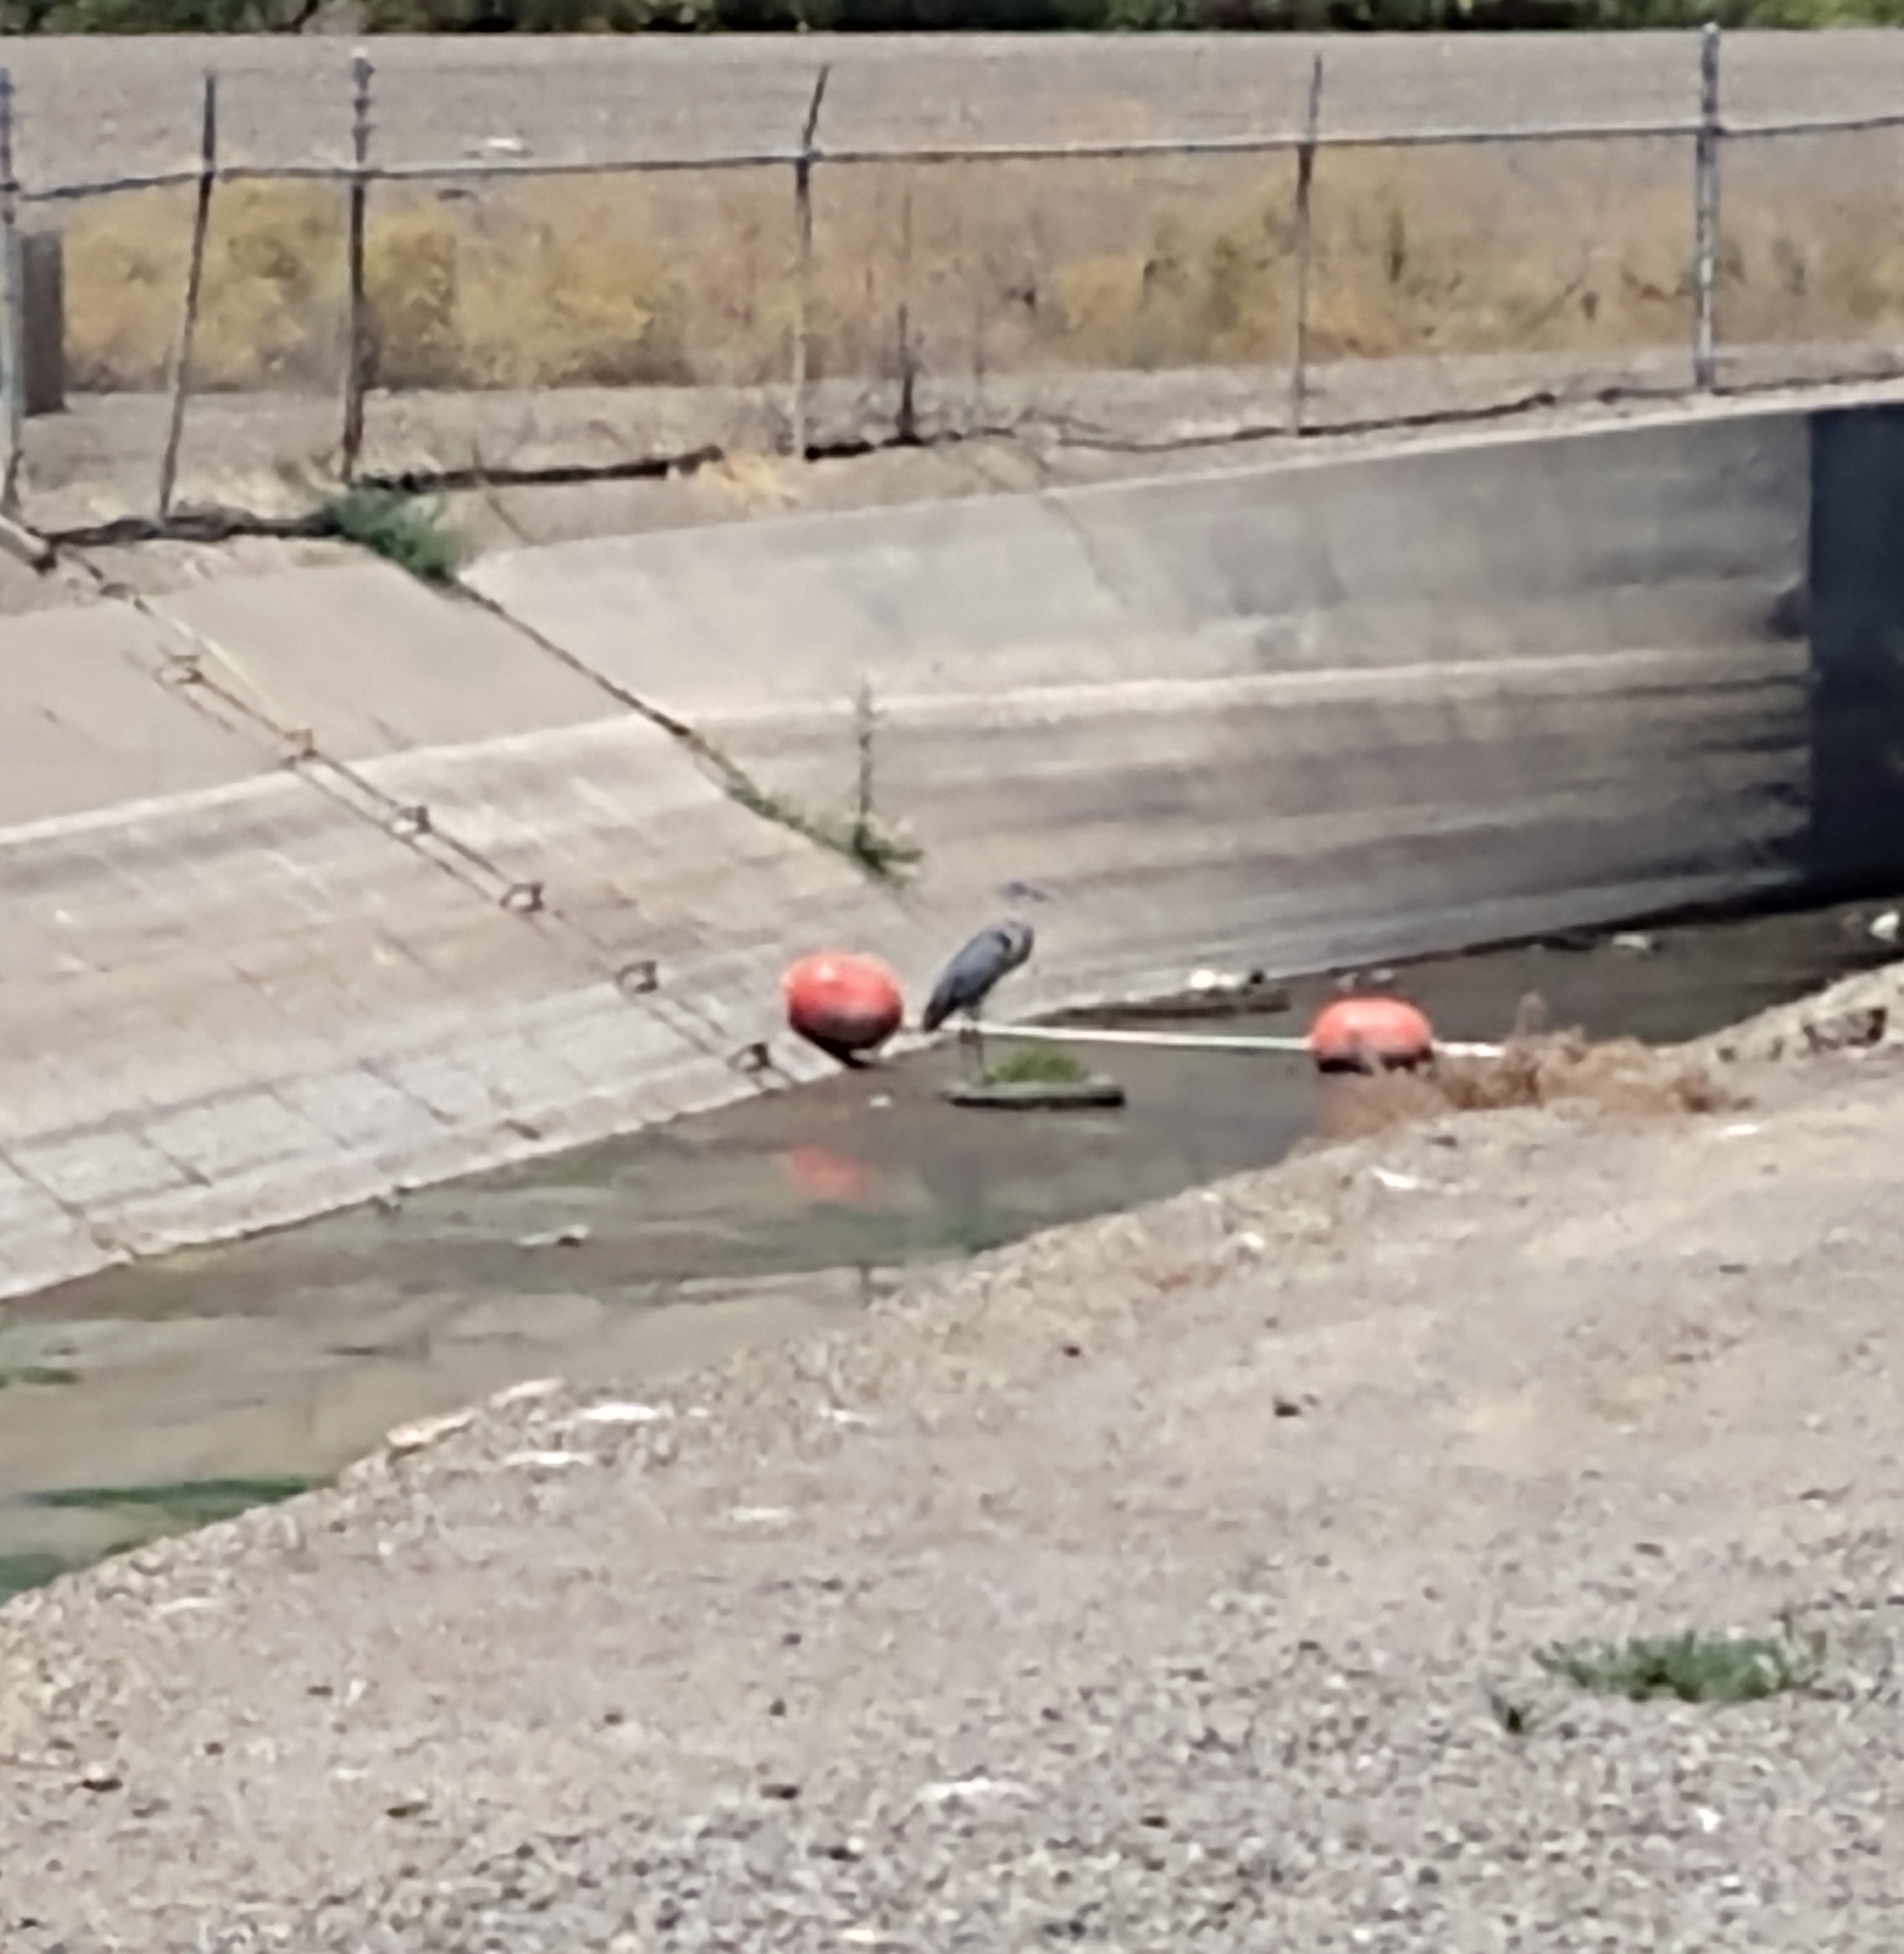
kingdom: Animalia
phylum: Chordata
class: Aves
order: Pelecaniformes
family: Ardeidae
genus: Ardea
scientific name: Ardea herodias
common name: Great blue heron
